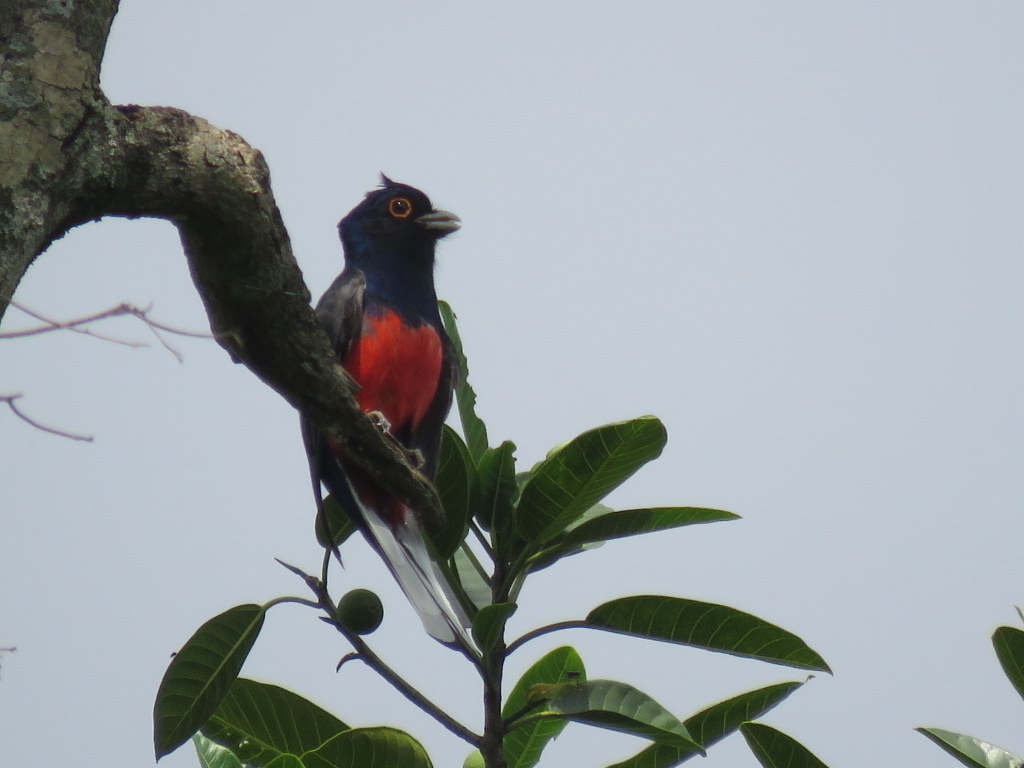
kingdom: Animalia
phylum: Chordata
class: Aves
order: Trogoniformes
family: Trogonidae
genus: Trogon
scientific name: Trogon surrucura
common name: Surucua trogon
